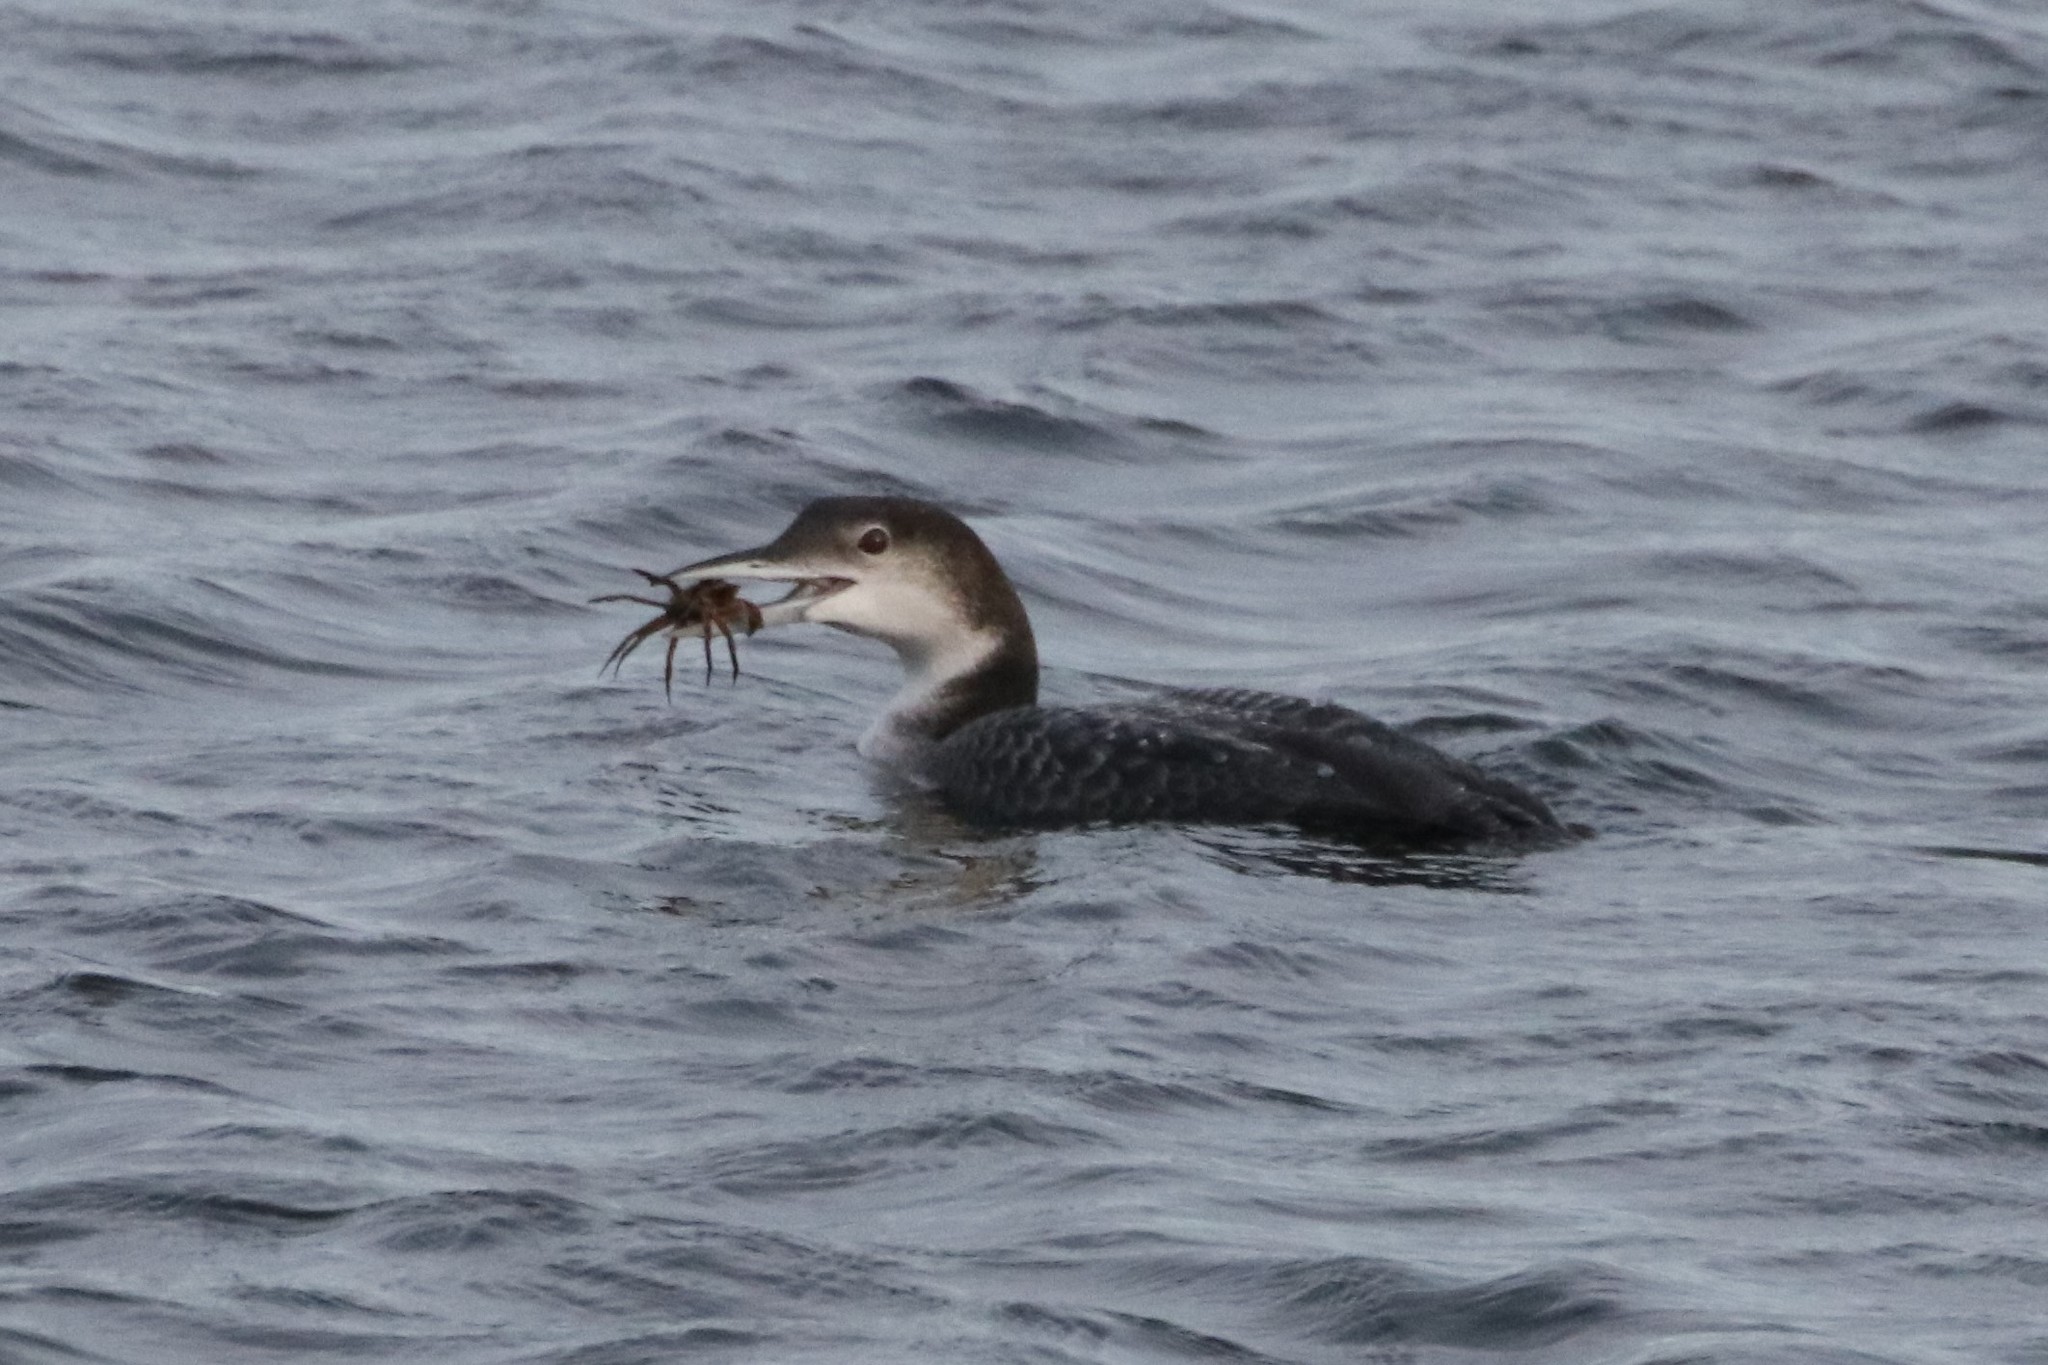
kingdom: Animalia
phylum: Chordata
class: Aves
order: Gaviiformes
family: Gaviidae
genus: Gavia
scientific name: Gavia immer
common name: Common loon
